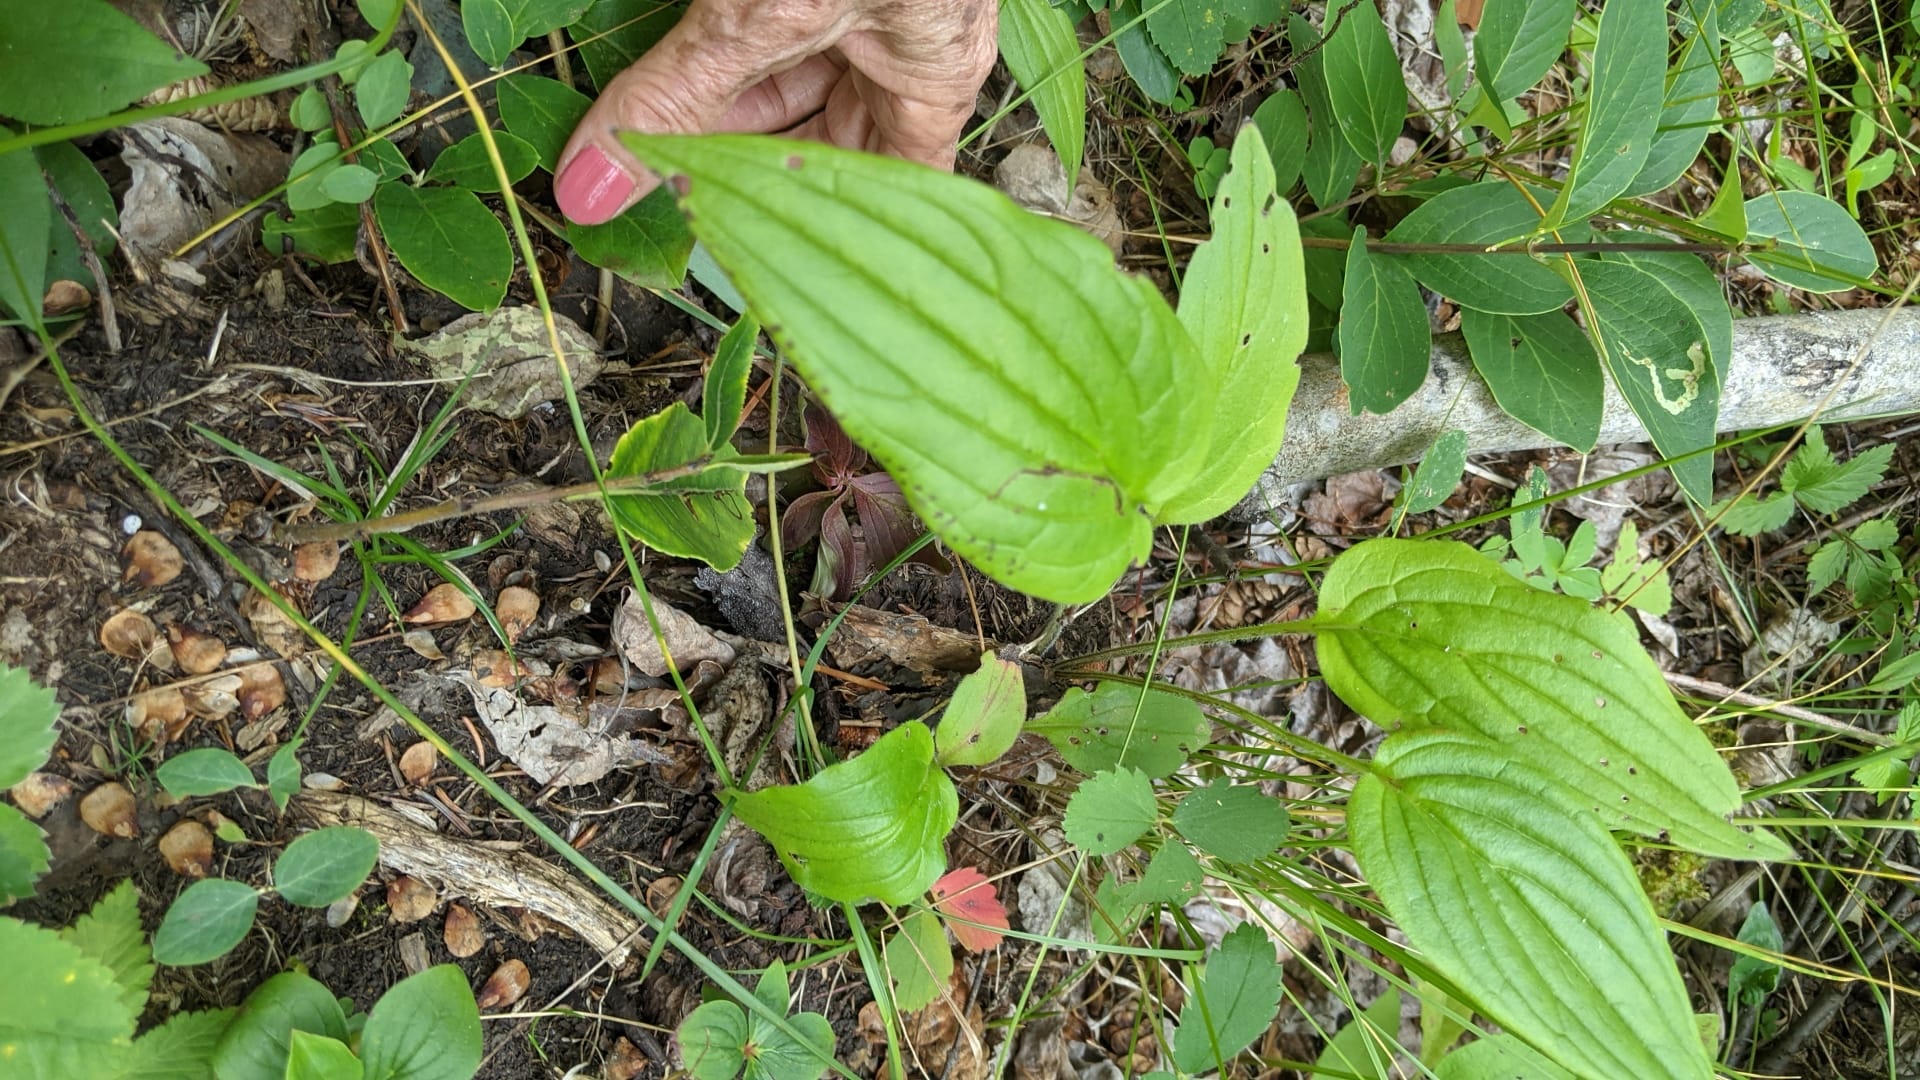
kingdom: Plantae
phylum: Tracheophyta
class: Magnoliopsida
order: Boraginales
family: Boraginaceae
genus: Mertensia
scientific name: Mertensia paniculata
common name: Panicled bluebells
